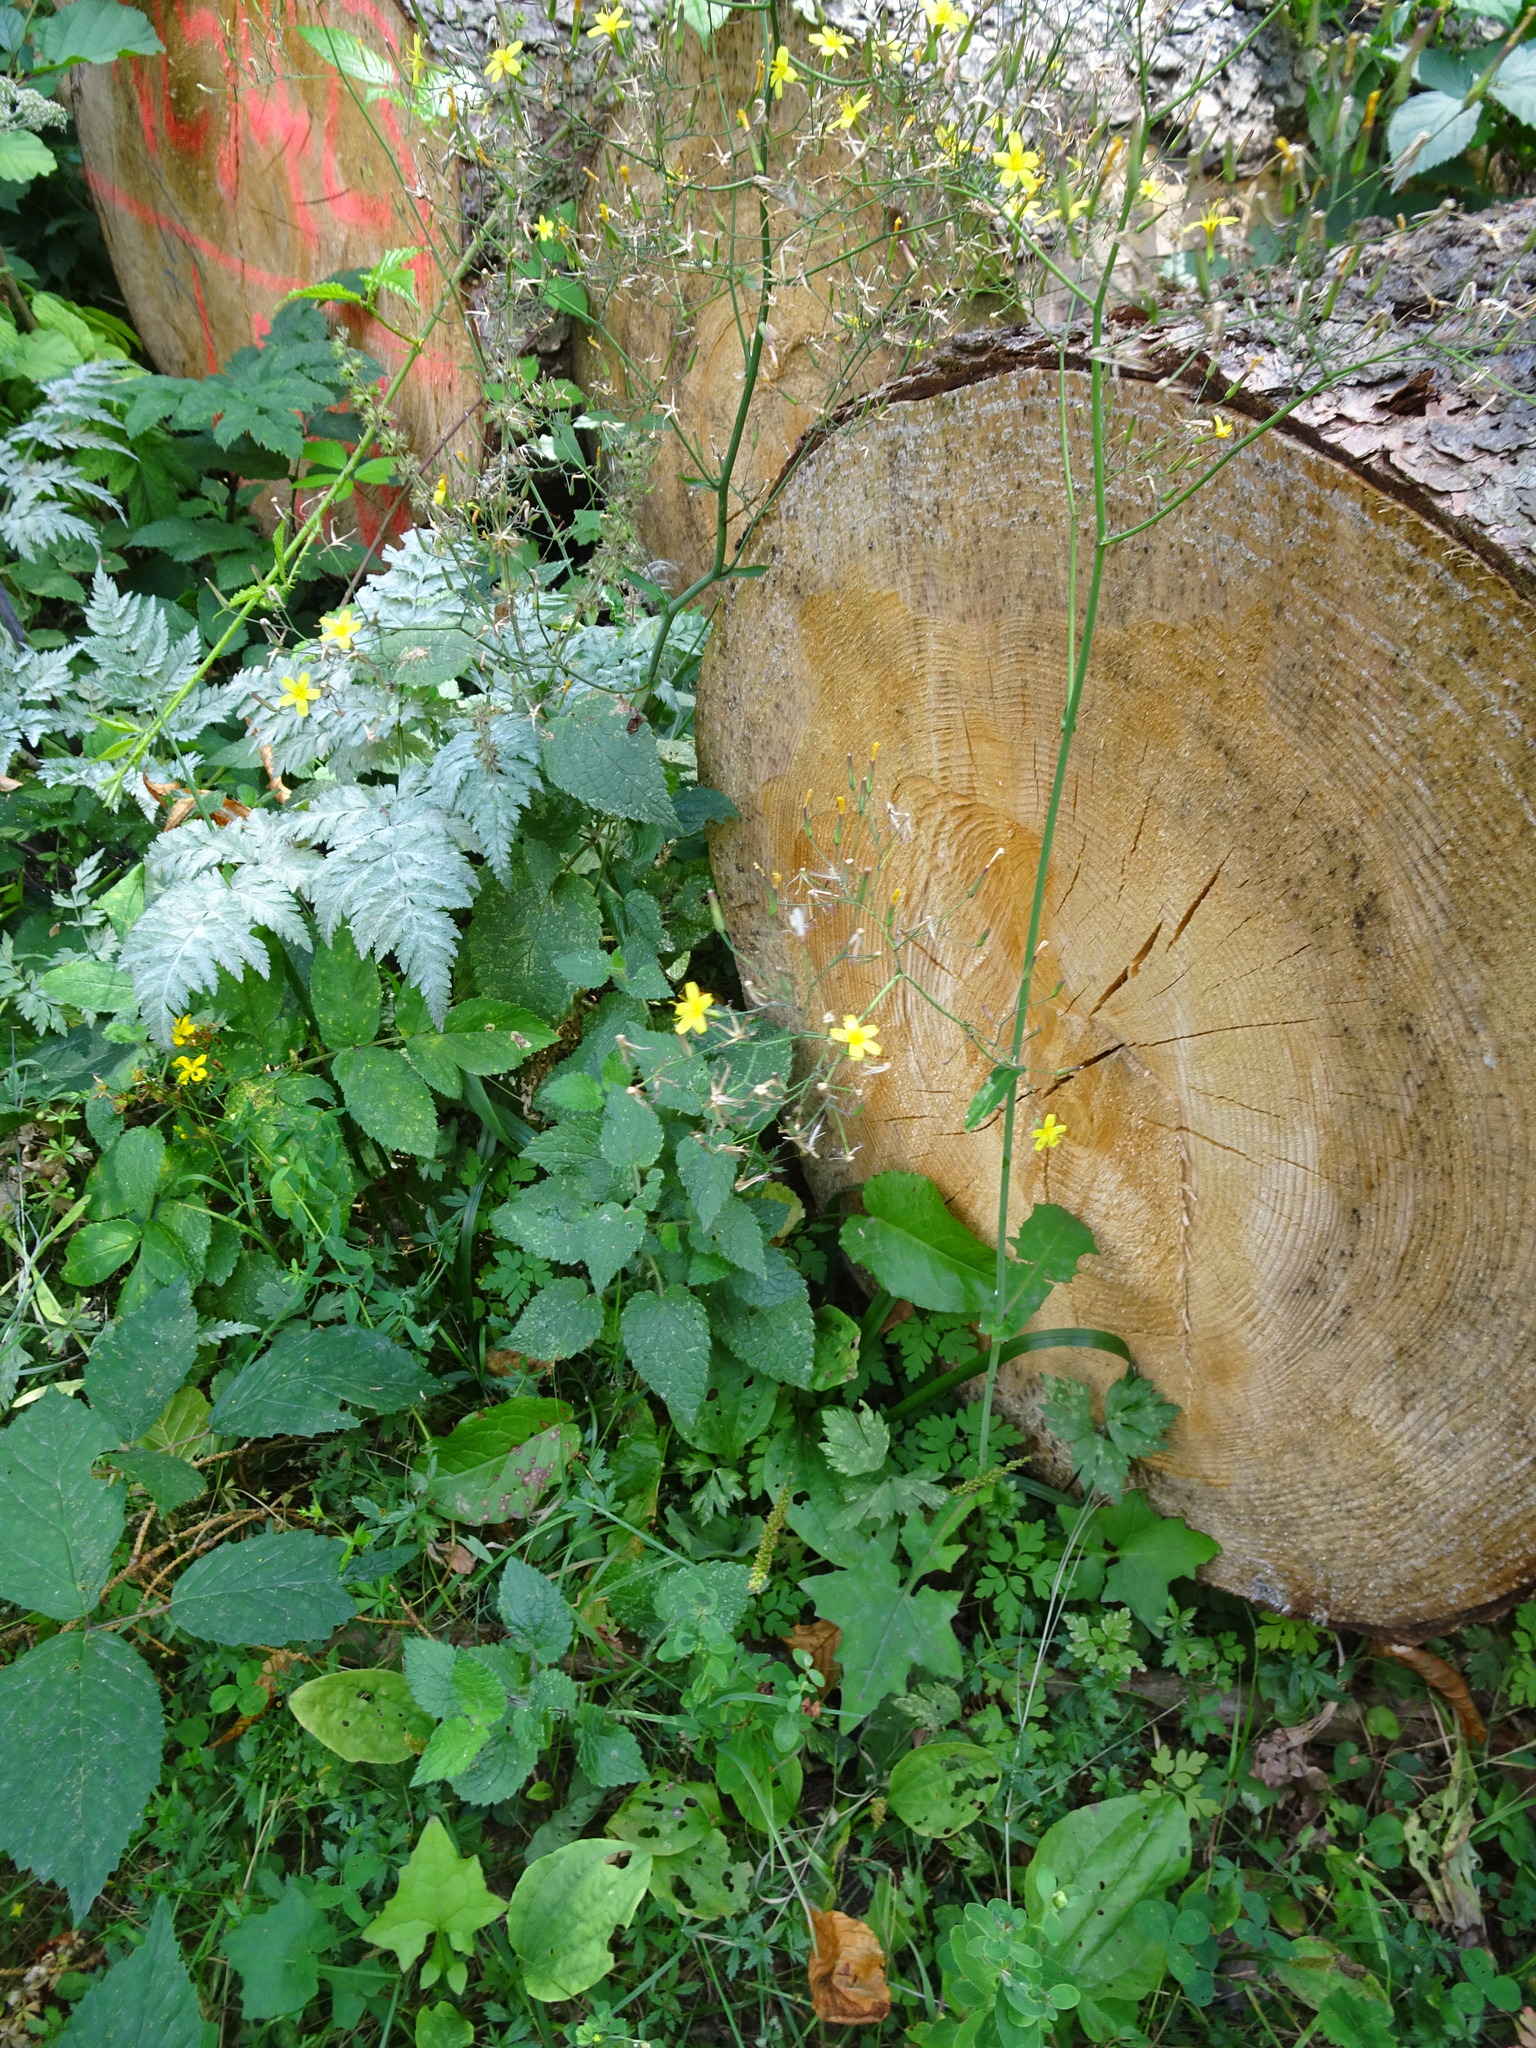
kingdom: Plantae
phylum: Tracheophyta
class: Magnoliopsida
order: Asterales
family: Asteraceae
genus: Mycelis
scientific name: Mycelis muralis
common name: Wall lettuce
